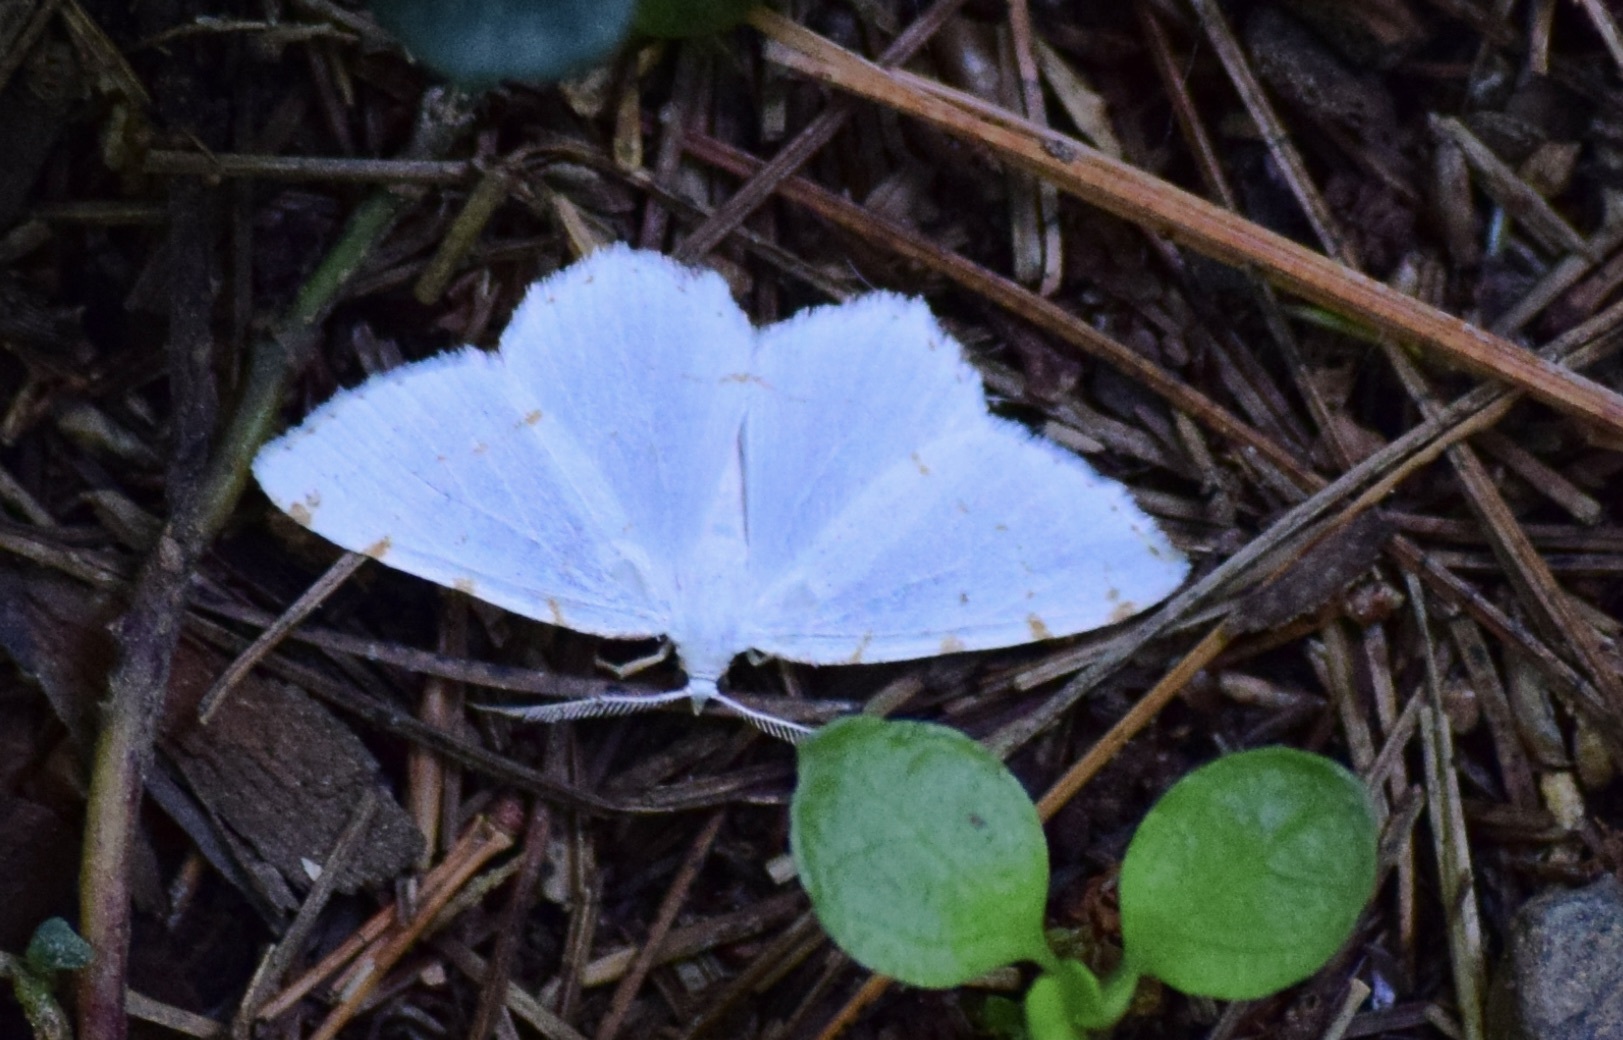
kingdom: Animalia
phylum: Arthropoda
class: Insecta
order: Lepidoptera
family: Geometridae
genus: Macaria
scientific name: Macaria pustularia
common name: Lesser maple spanworm moth
